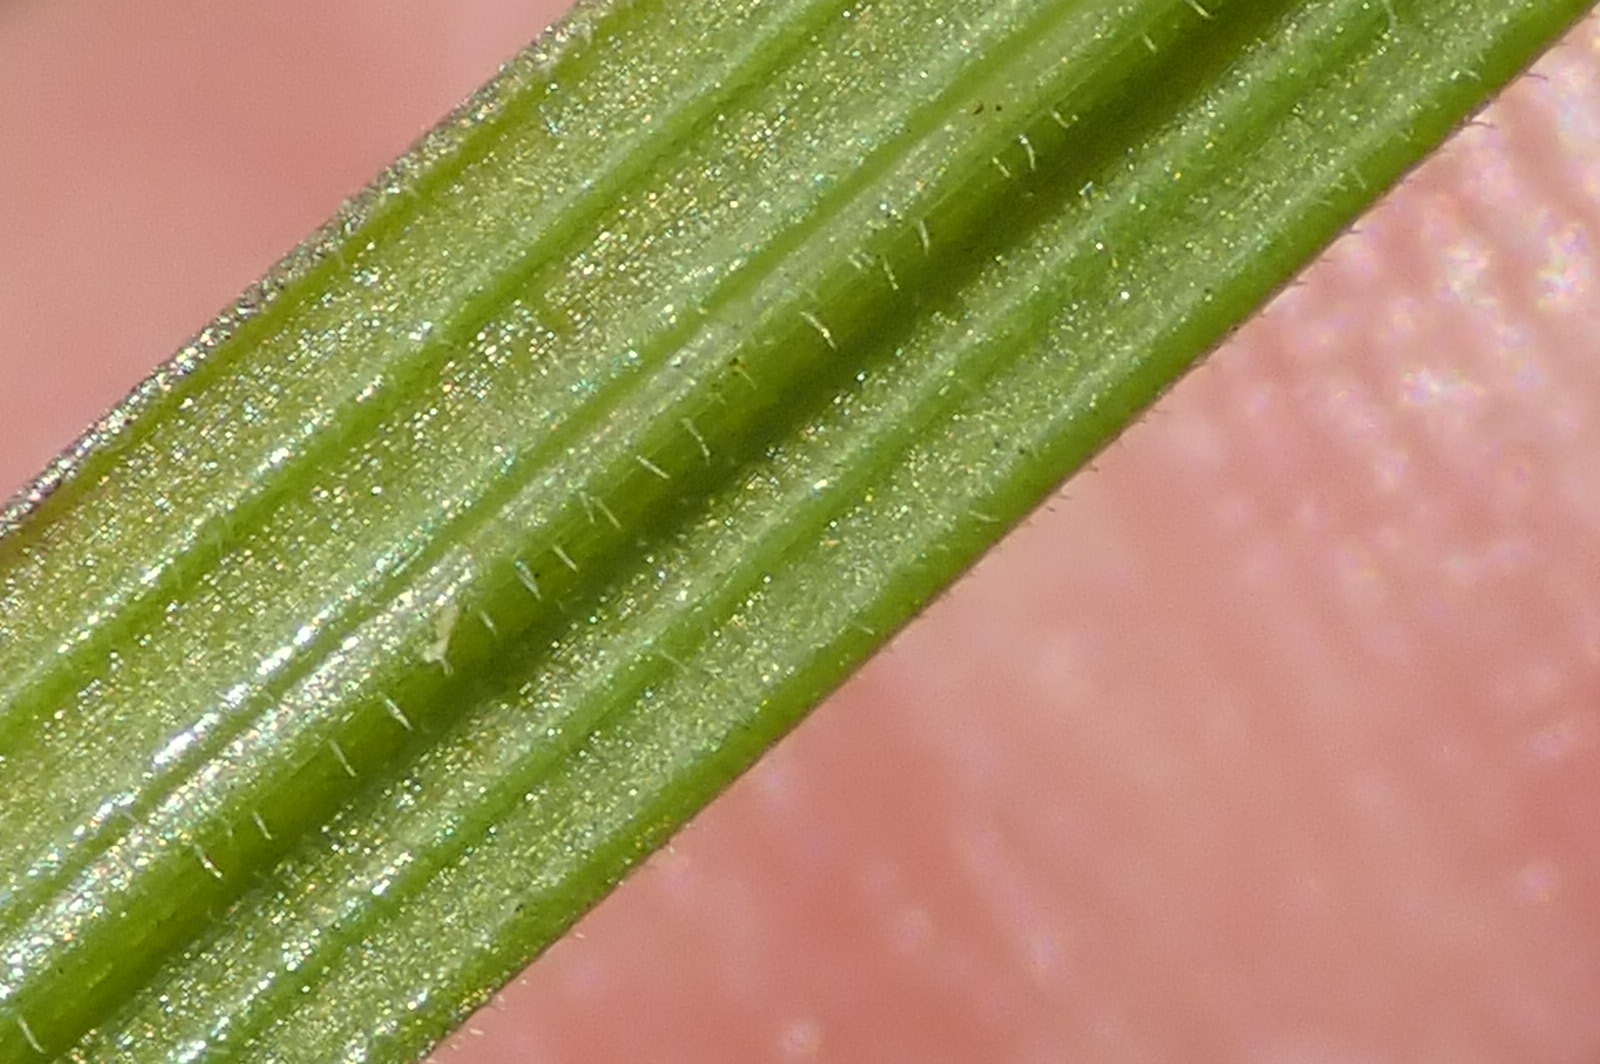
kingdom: Plantae
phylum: Tracheophyta
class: Liliopsida
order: Asparagales
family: Iridaceae
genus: Geissorhiza
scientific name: Geissorhiza lewisiae
